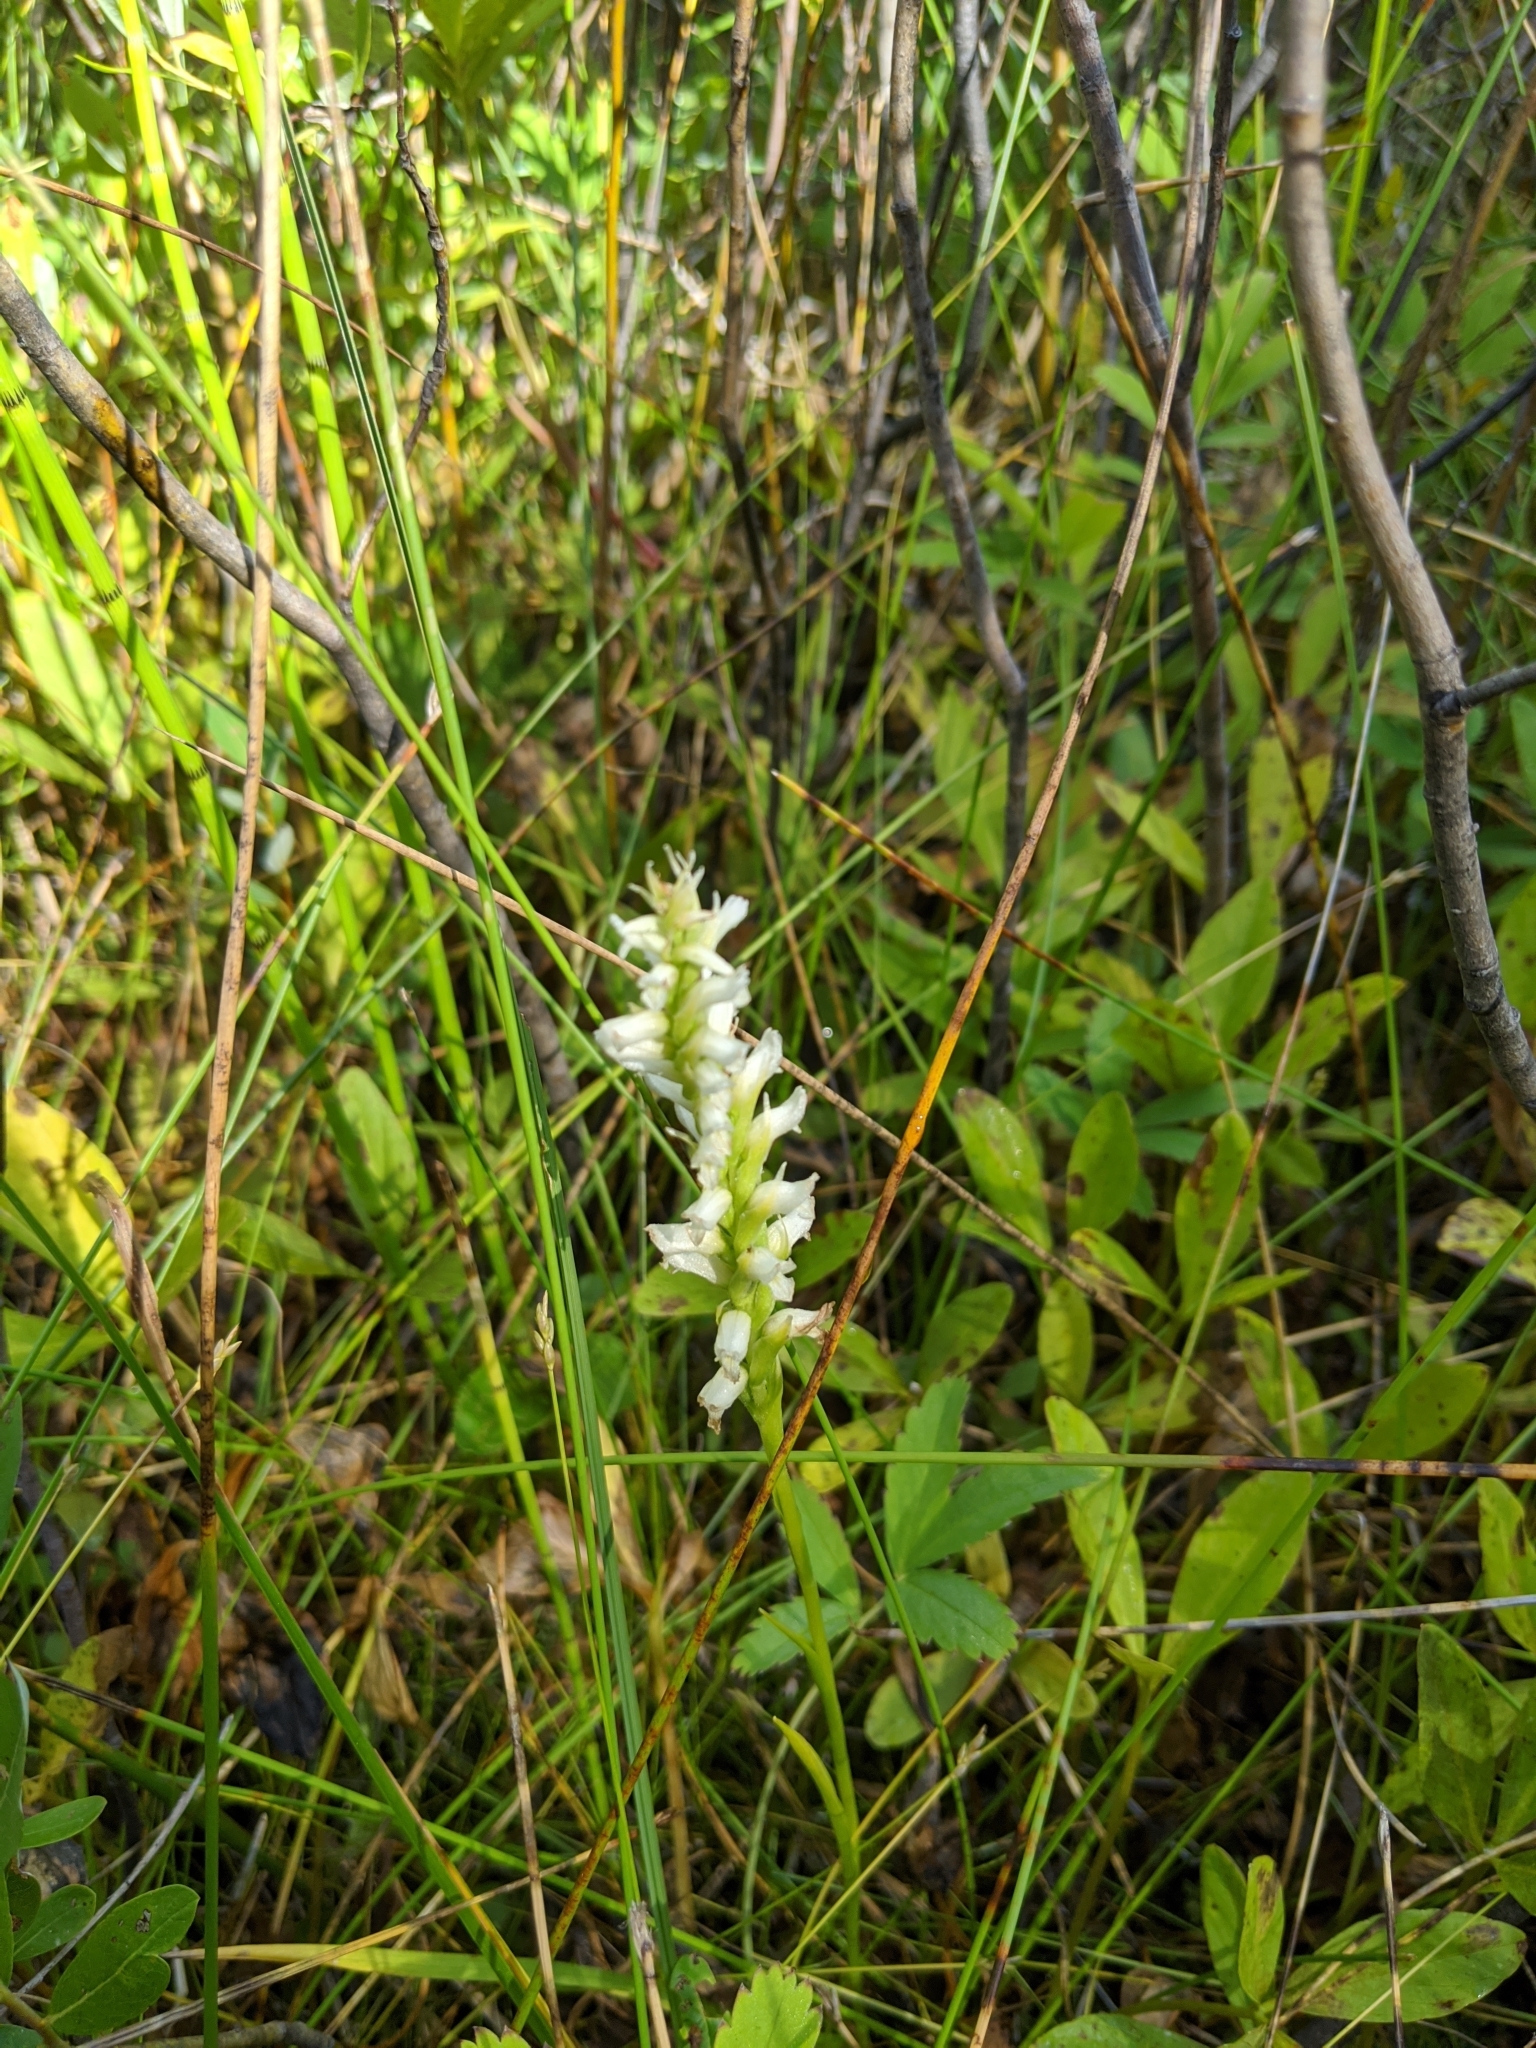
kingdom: Plantae
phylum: Tracheophyta
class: Liliopsida
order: Asparagales
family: Orchidaceae
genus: Spiranthes
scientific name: Spiranthes romanzoffiana
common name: Irish lady's-tresses
